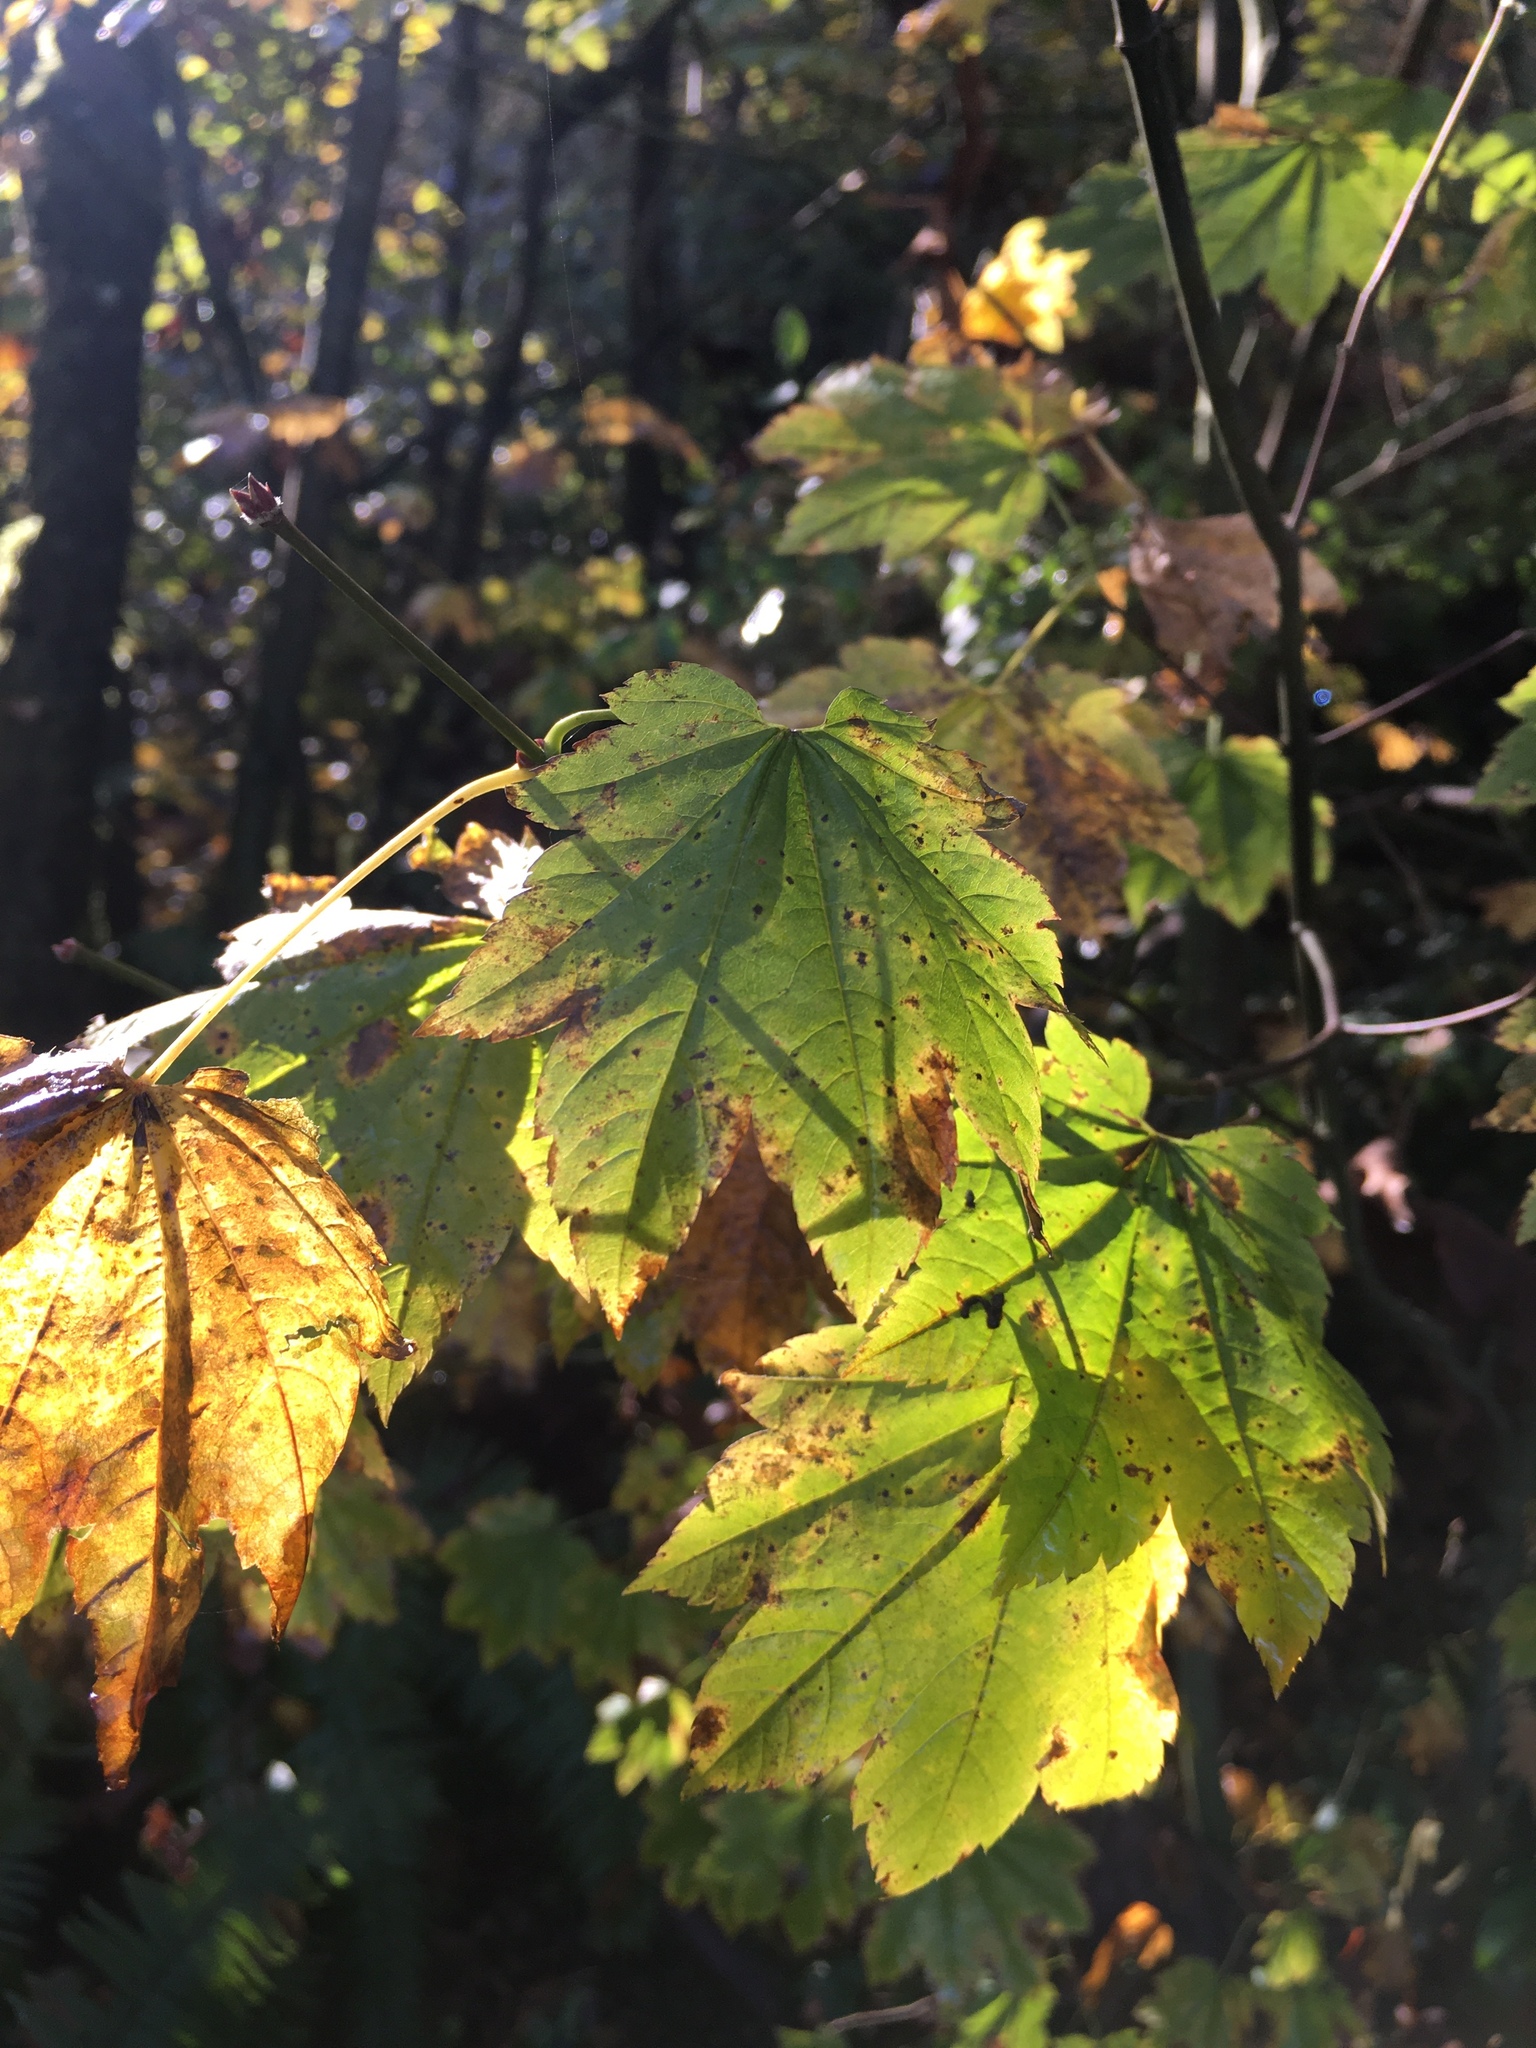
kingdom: Plantae
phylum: Tracheophyta
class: Magnoliopsida
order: Sapindales
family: Sapindaceae
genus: Acer
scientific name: Acer circinatum
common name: Vine maple
